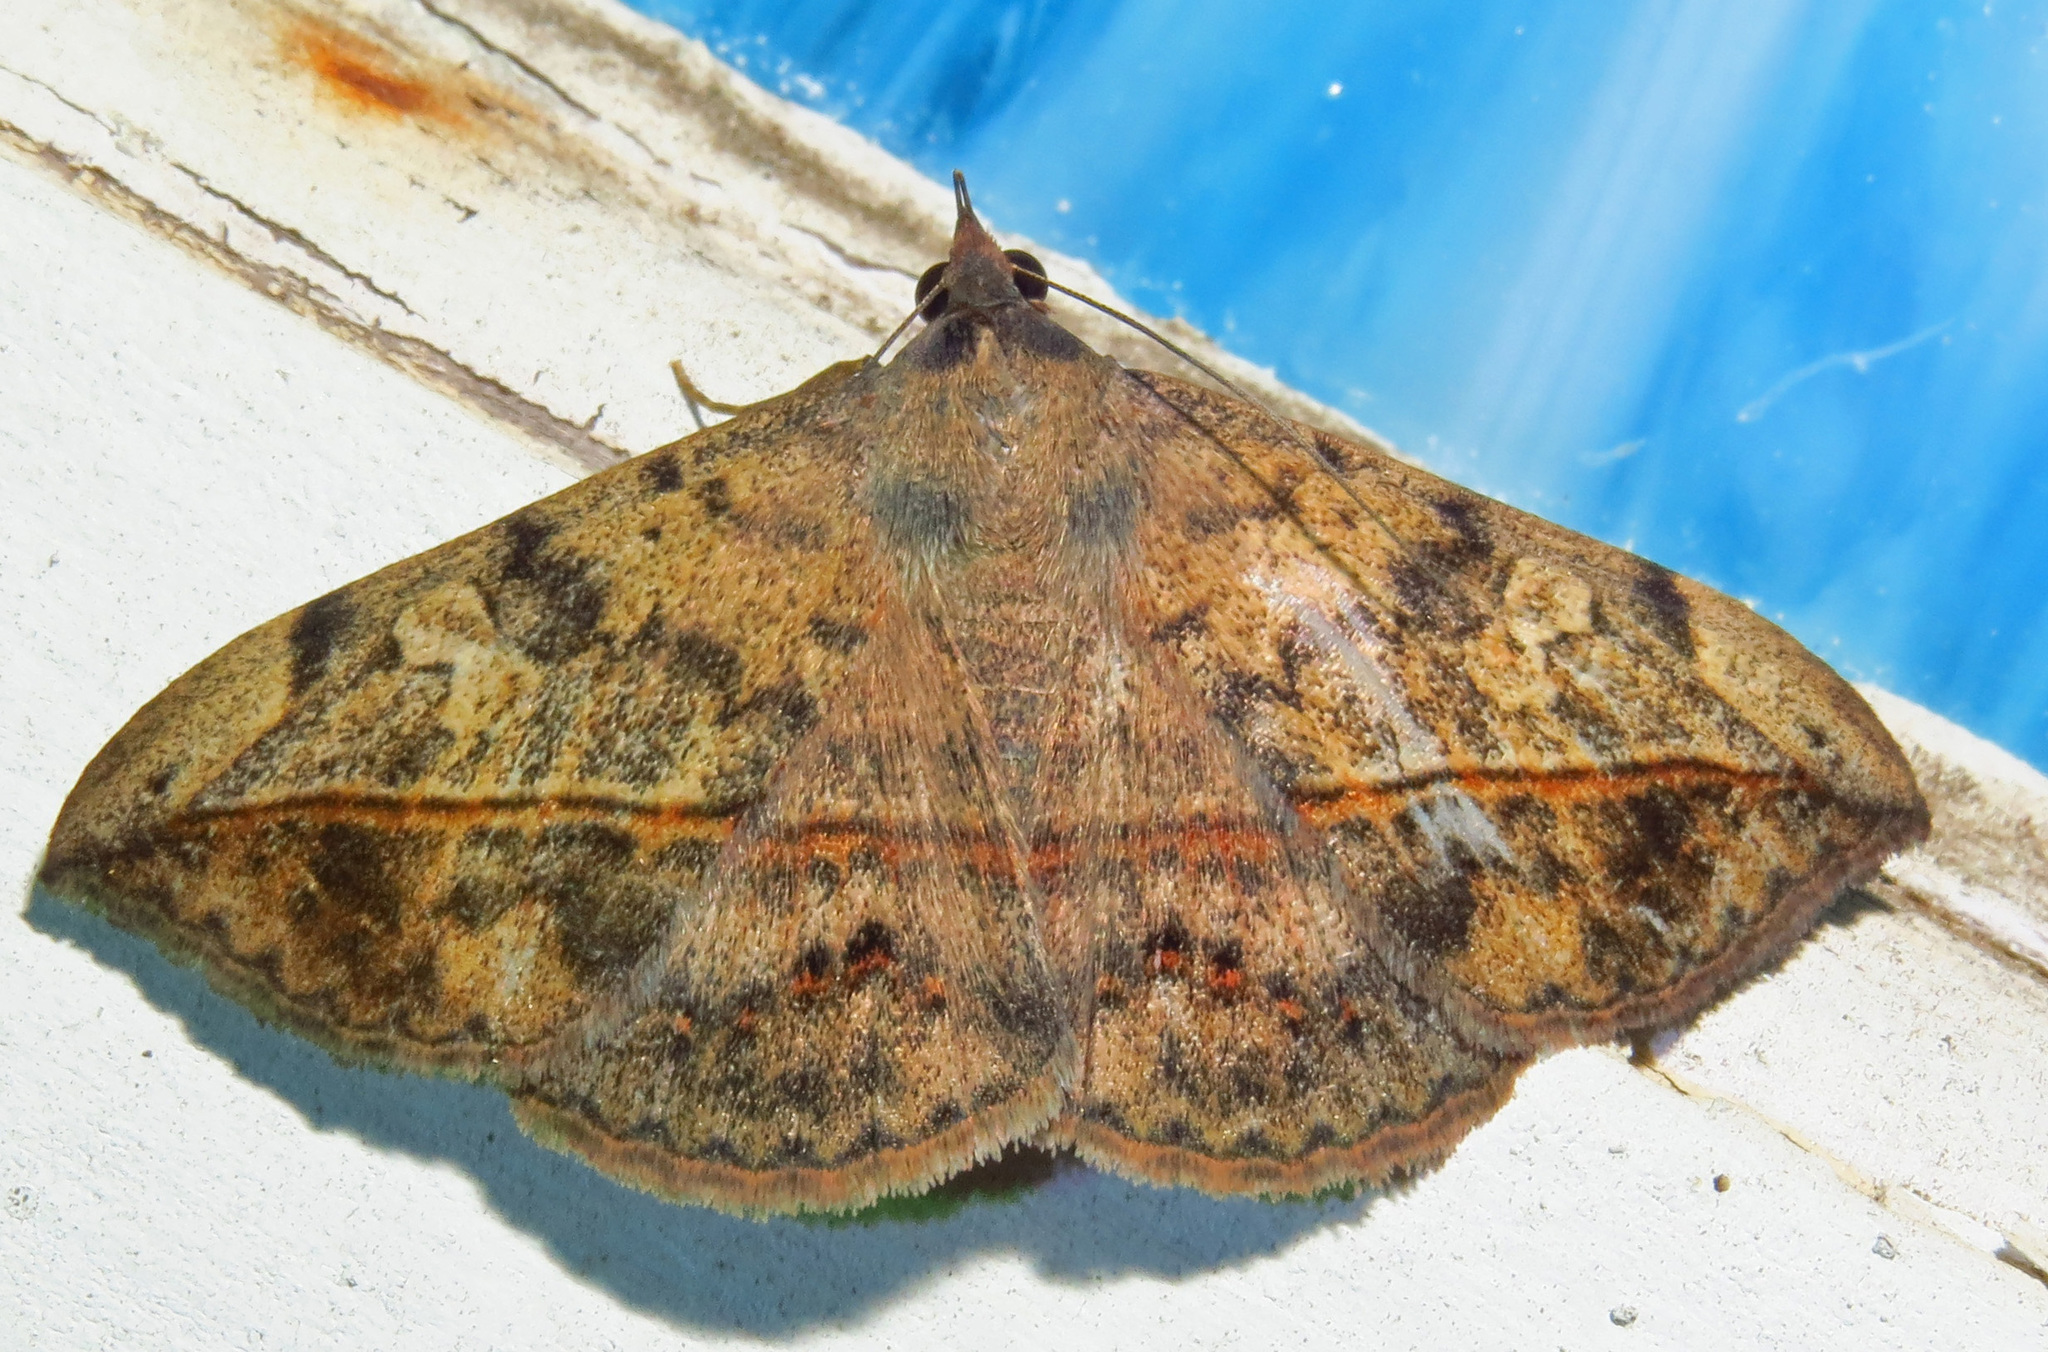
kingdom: Animalia
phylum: Arthropoda
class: Insecta
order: Lepidoptera
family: Erebidae
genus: Anticarsia
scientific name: Anticarsia gemmatalis
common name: Cutworm moth
